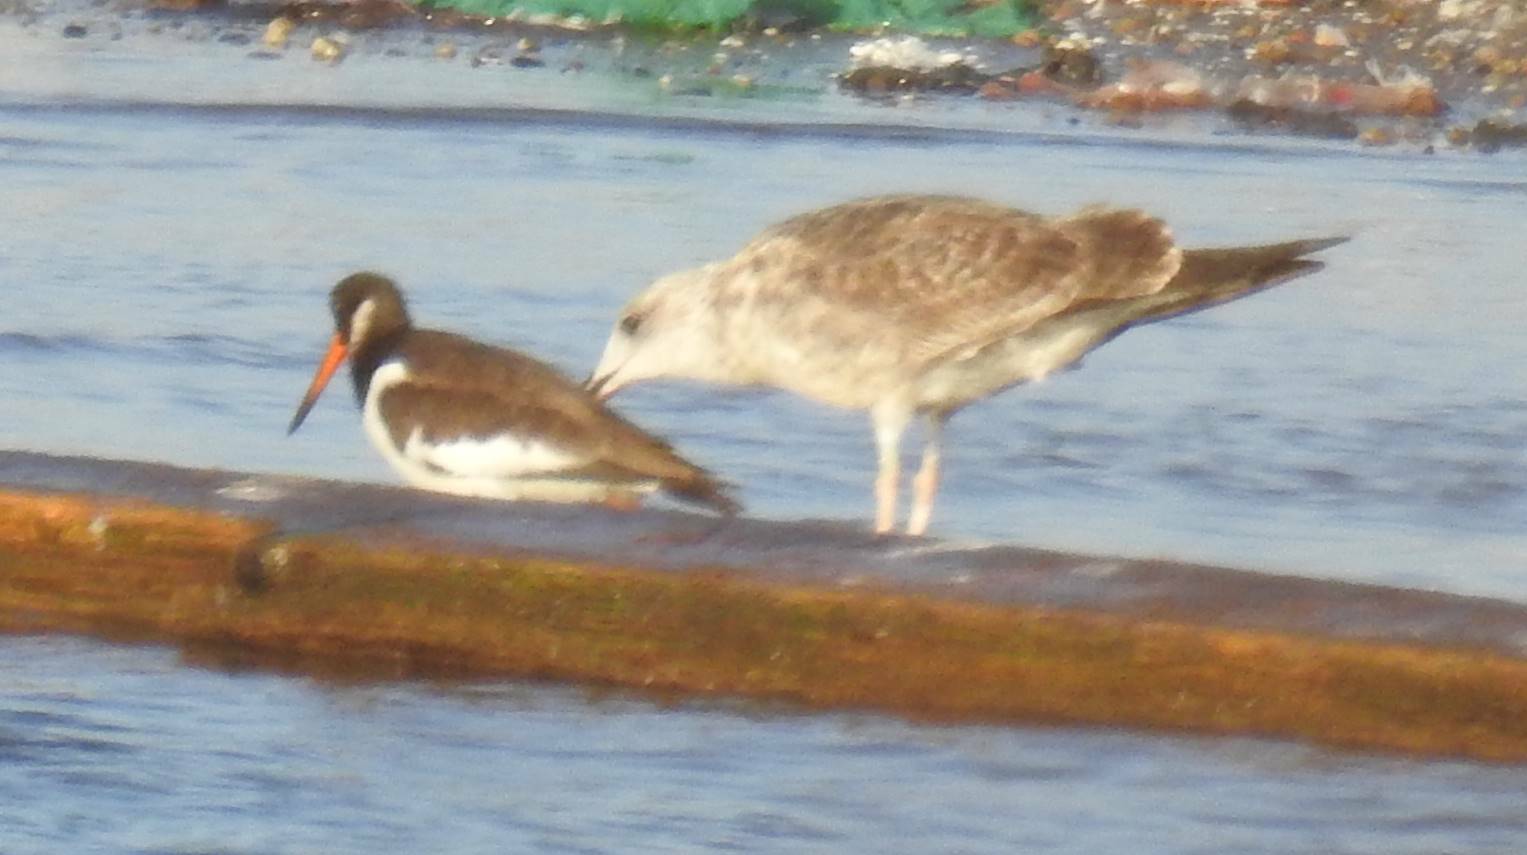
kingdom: Animalia
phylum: Chordata
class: Aves
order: Charadriiformes
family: Haematopodidae
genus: Haematopus
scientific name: Haematopus ostralegus
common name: Eurasian oystercatcher
